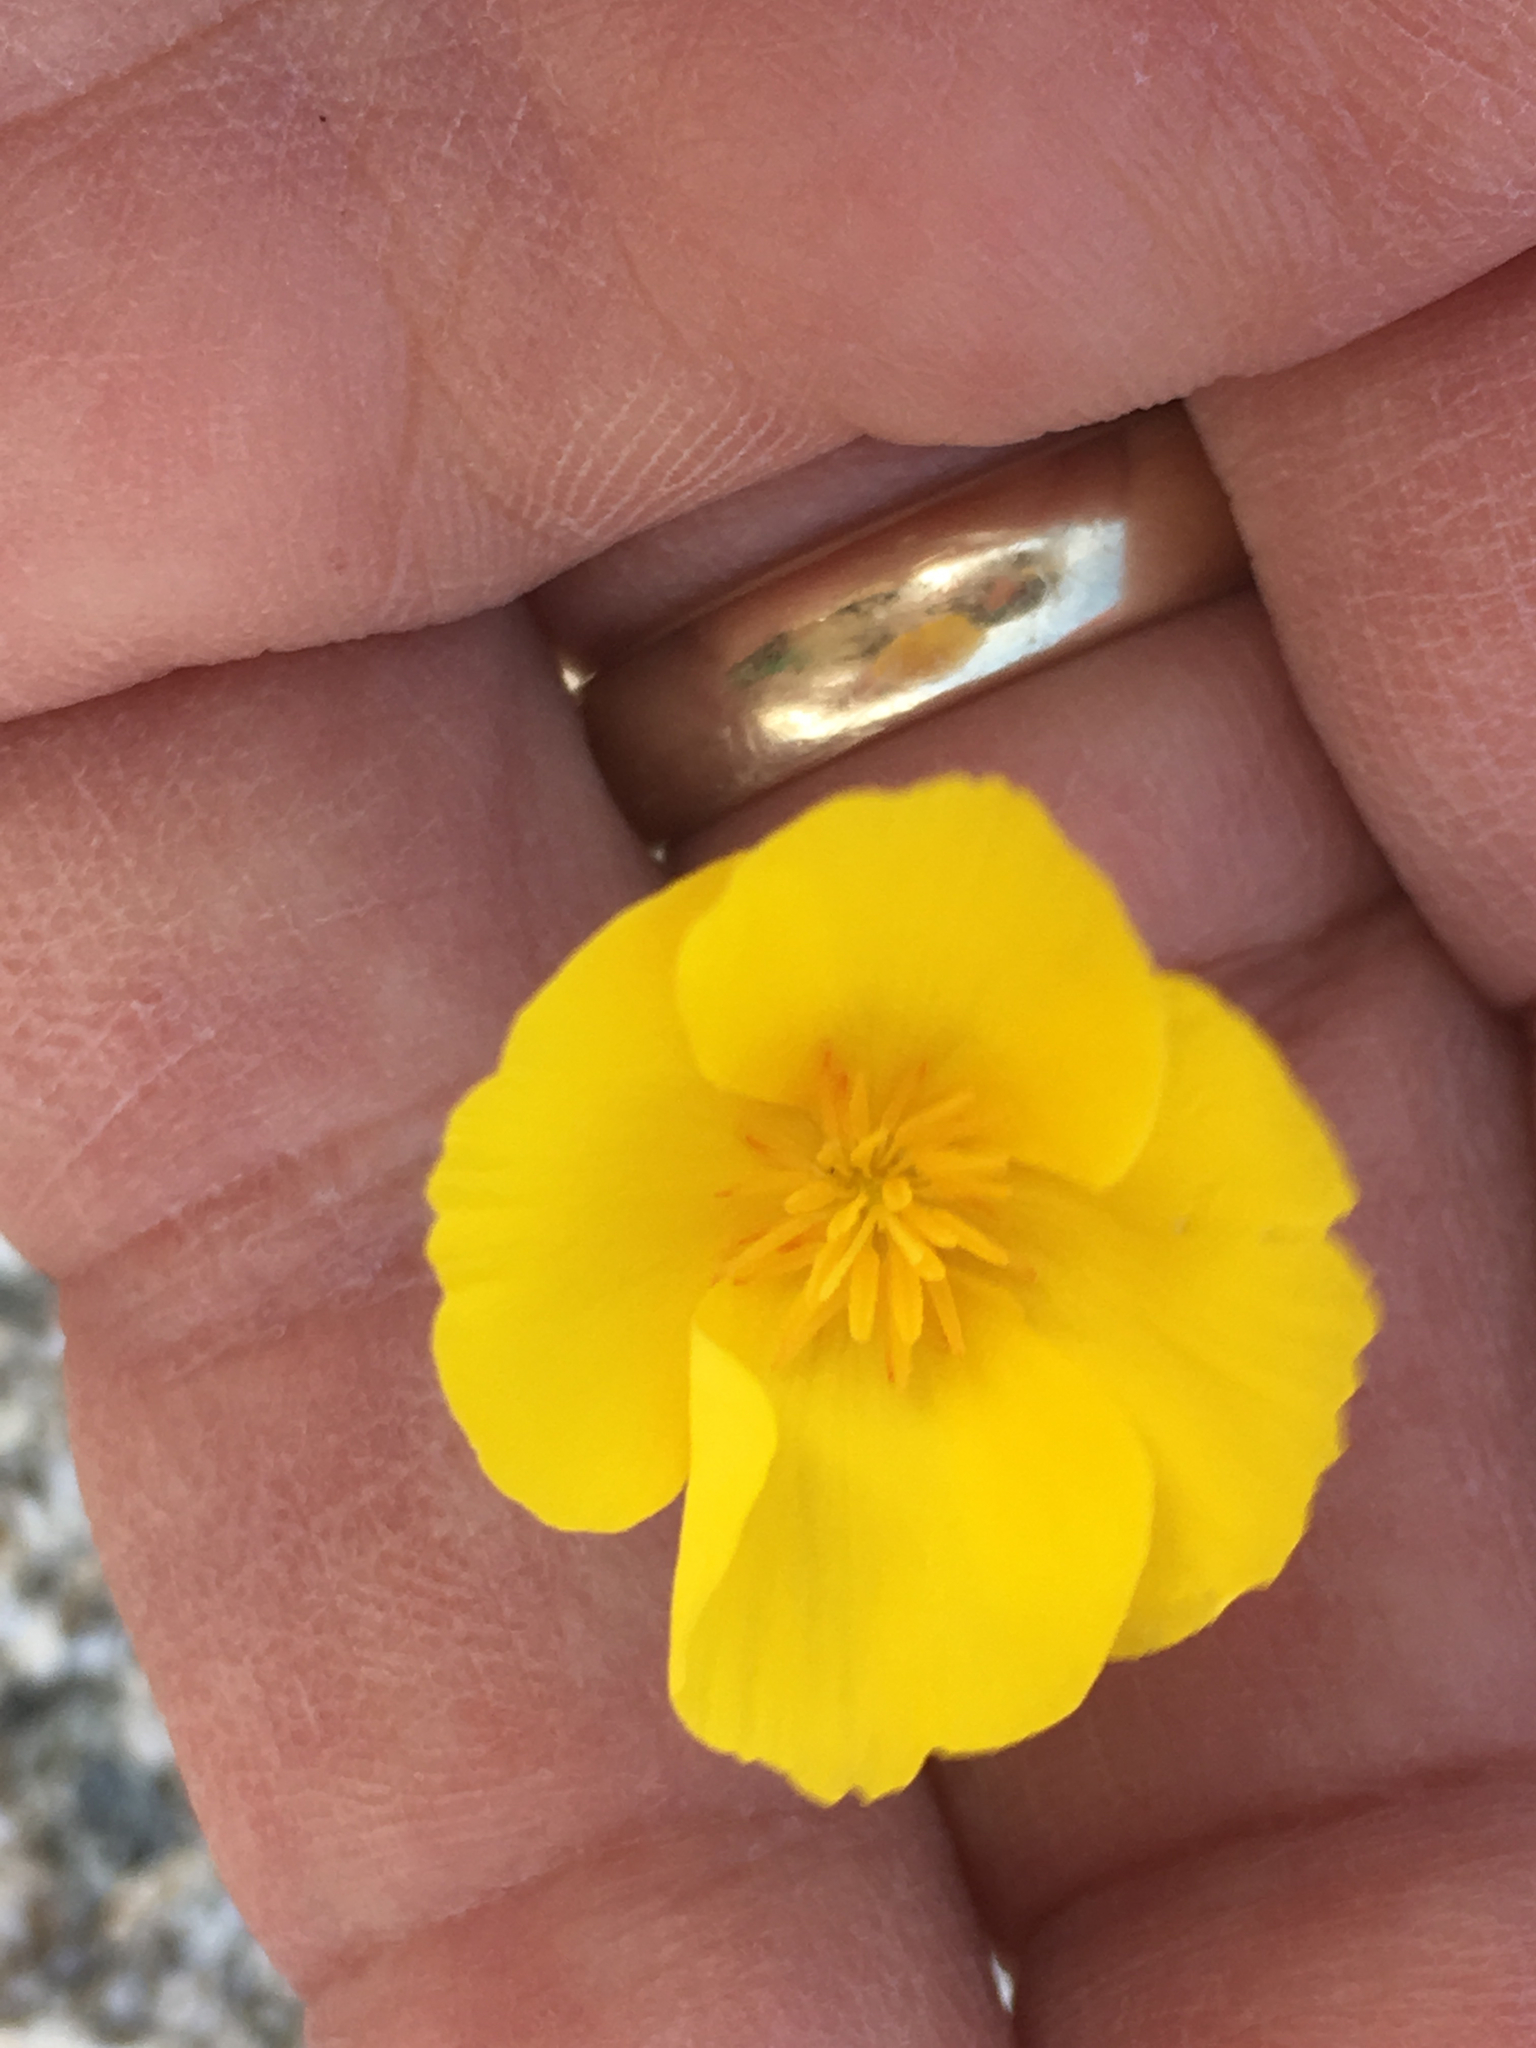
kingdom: Plantae
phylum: Tracheophyta
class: Magnoliopsida
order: Ranunculales
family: Papaveraceae
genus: Eschscholzia
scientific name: Eschscholzia parishii
